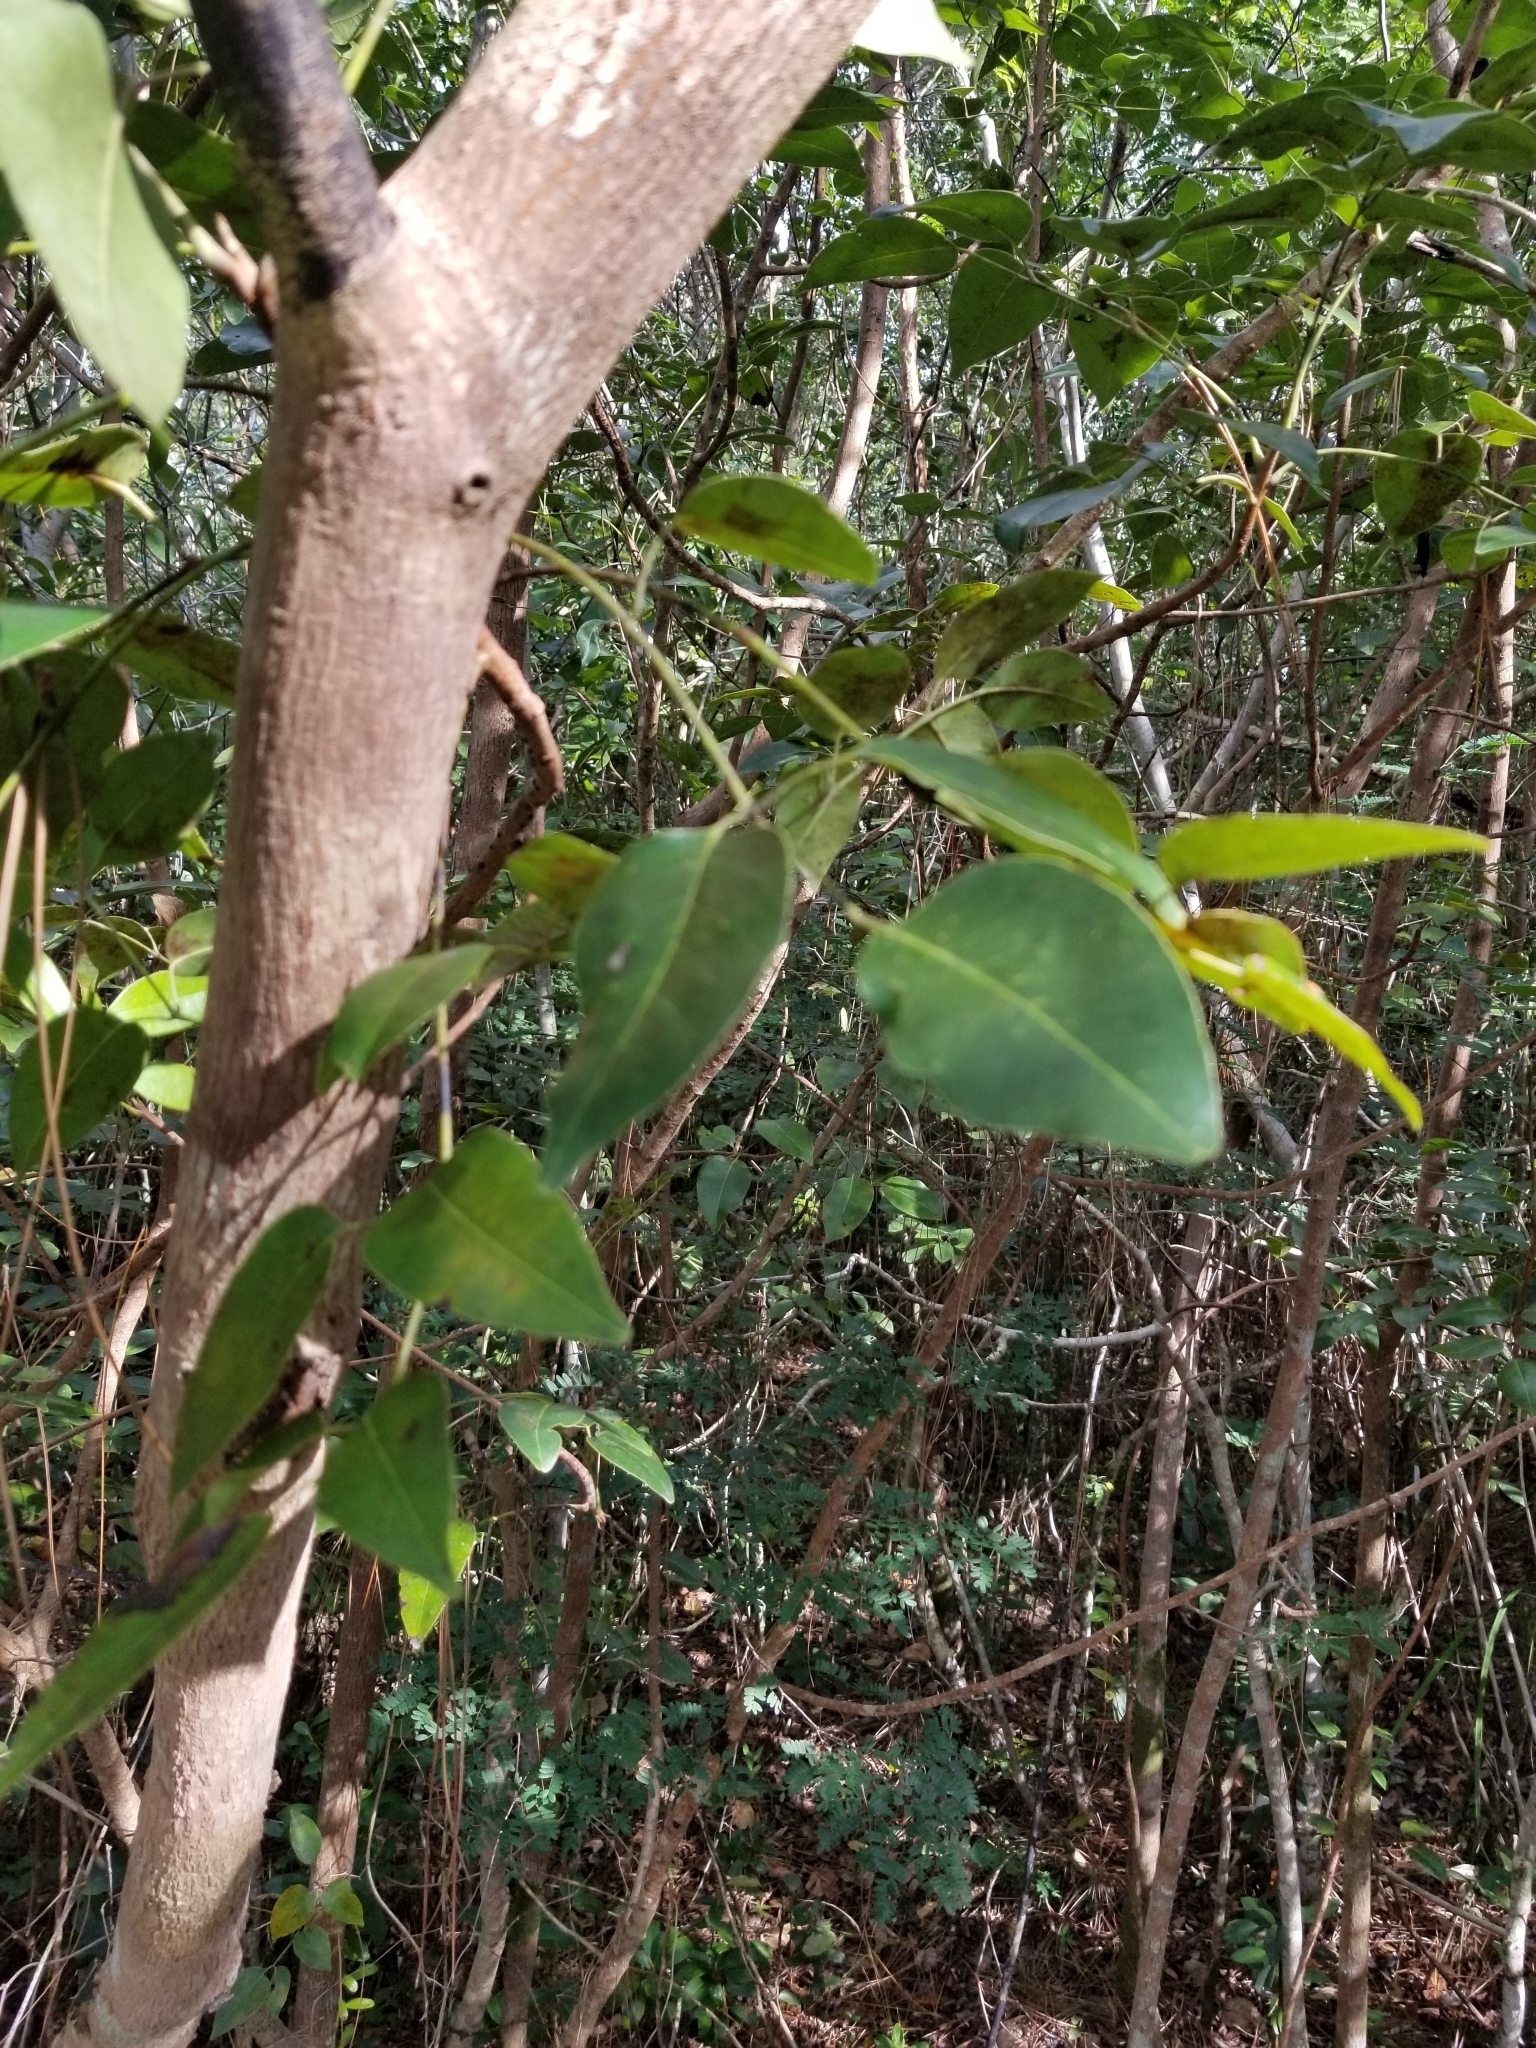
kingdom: Plantae
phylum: Tracheophyta
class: Magnoliopsida
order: Sapindales
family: Anacardiaceae
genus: Metopium
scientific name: Metopium toxiferum
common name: Florida poisontree
